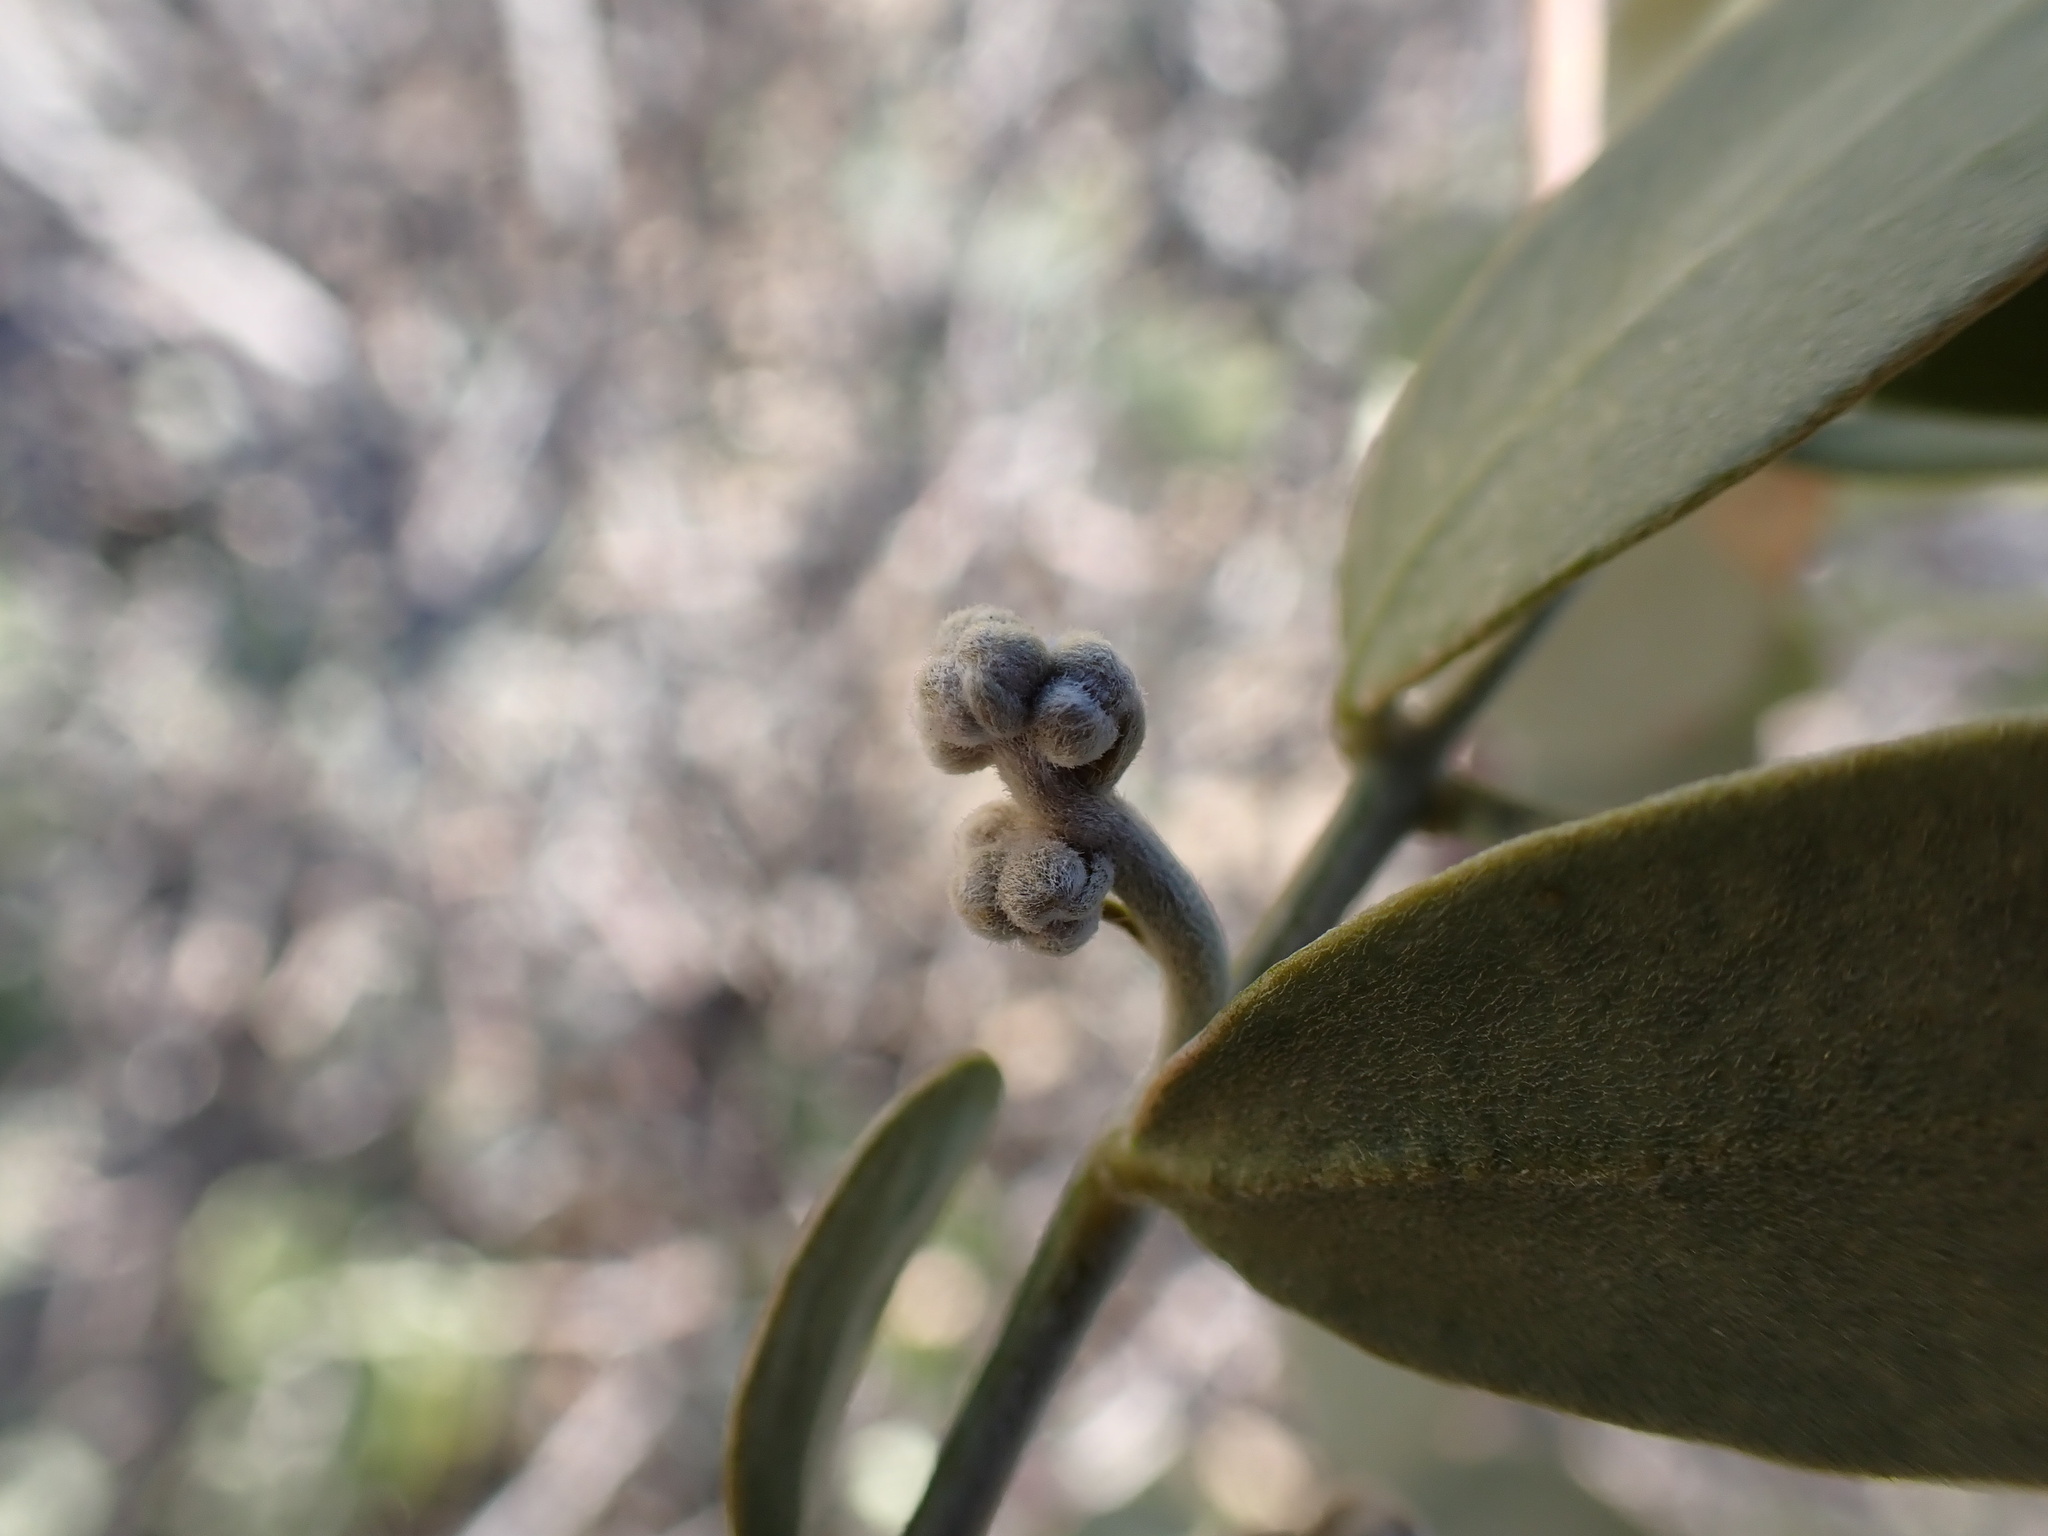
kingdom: Plantae
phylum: Tracheophyta
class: Magnoliopsida
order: Caryophyllales
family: Simmondsiaceae
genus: Simmondsia
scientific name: Simmondsia chinensis
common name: Jojoba
